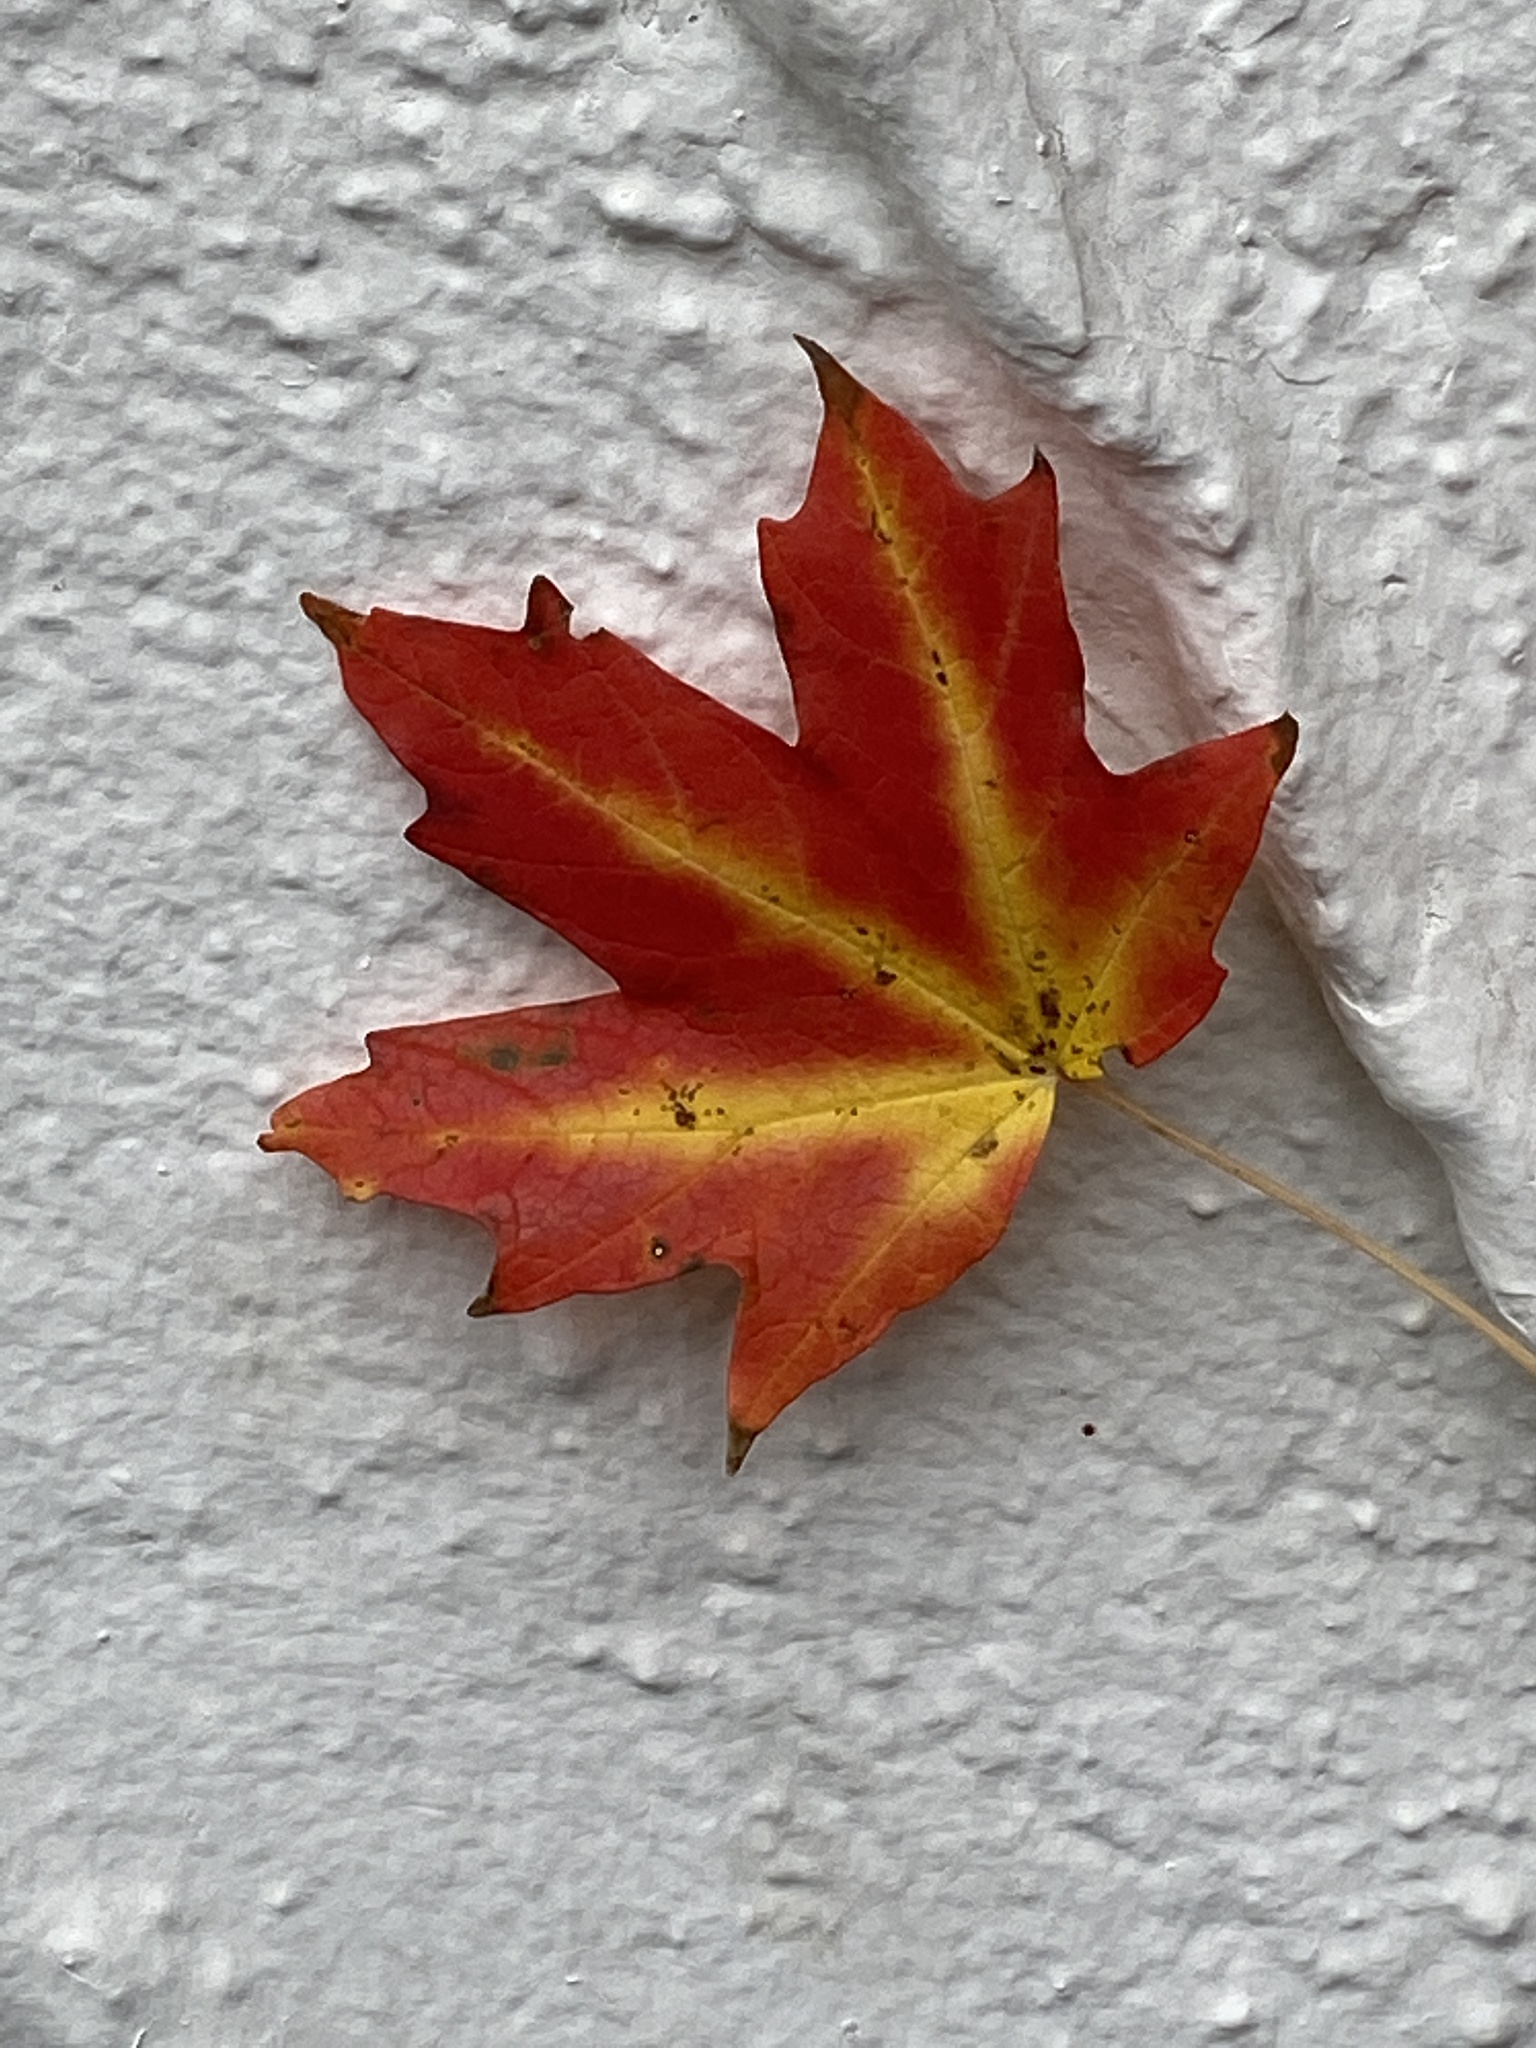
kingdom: Plantae
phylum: Tracheophyta
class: Magnoliopsida
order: Sapindales
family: Sapindaceae
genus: Acer
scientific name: Acer saccharum
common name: Sugar maple
